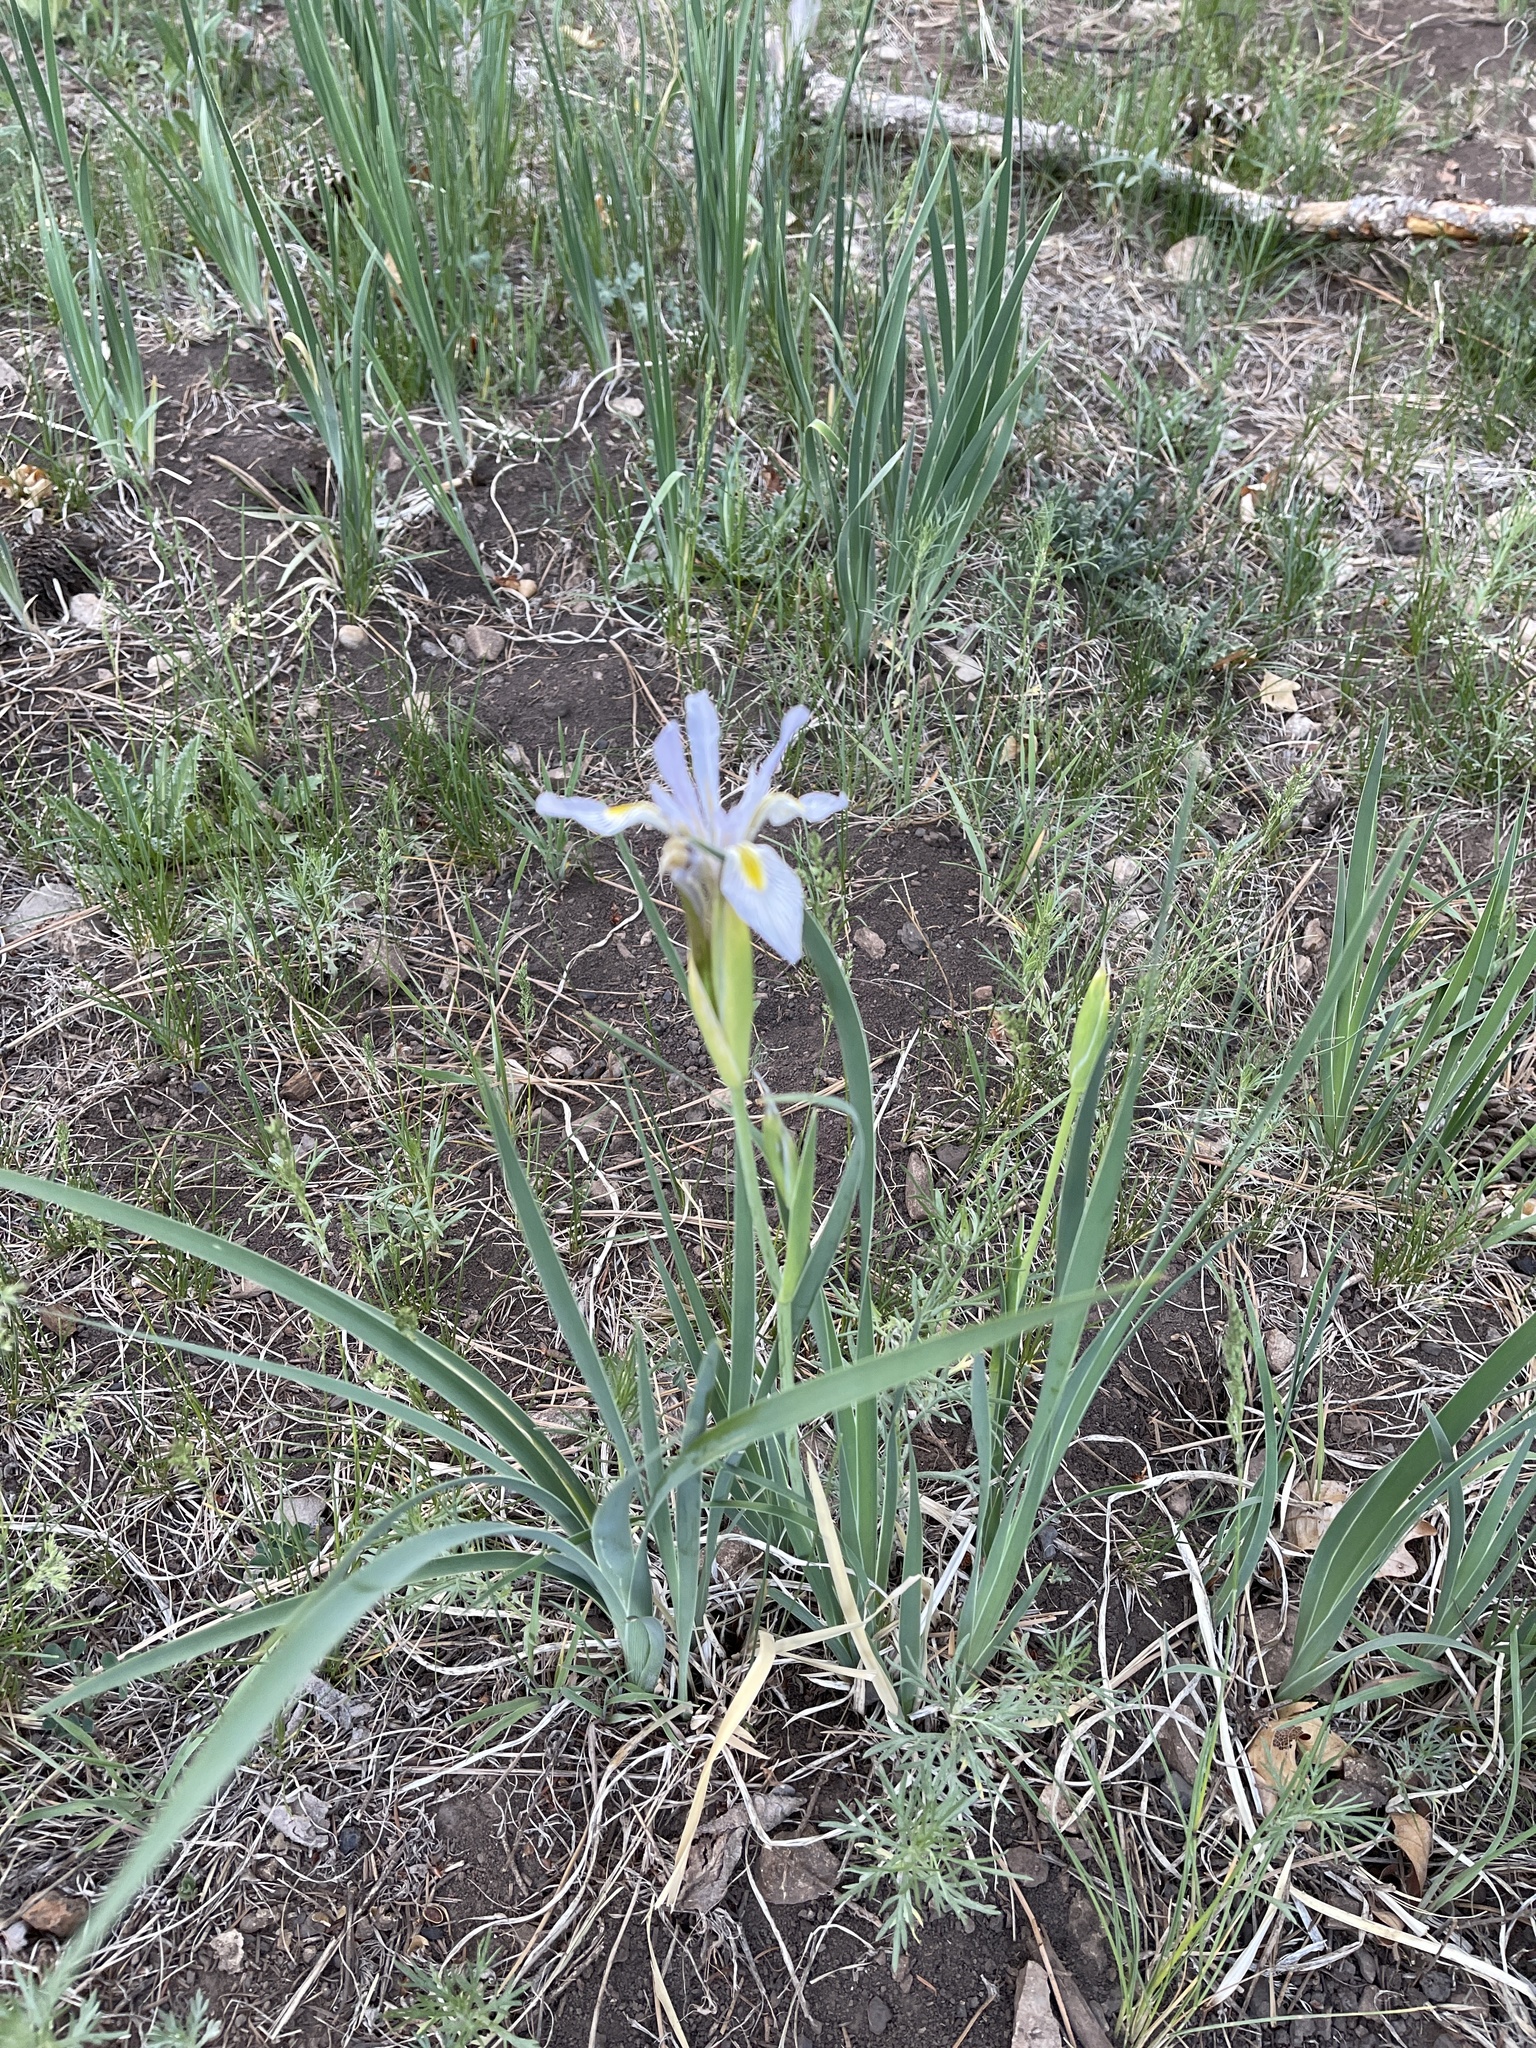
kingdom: Plantae
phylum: Tracheophyta
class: Liliopsida
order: Asparagales
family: Iridaceae
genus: Iris
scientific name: Iris missouriensis
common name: Rocky mountain iris
